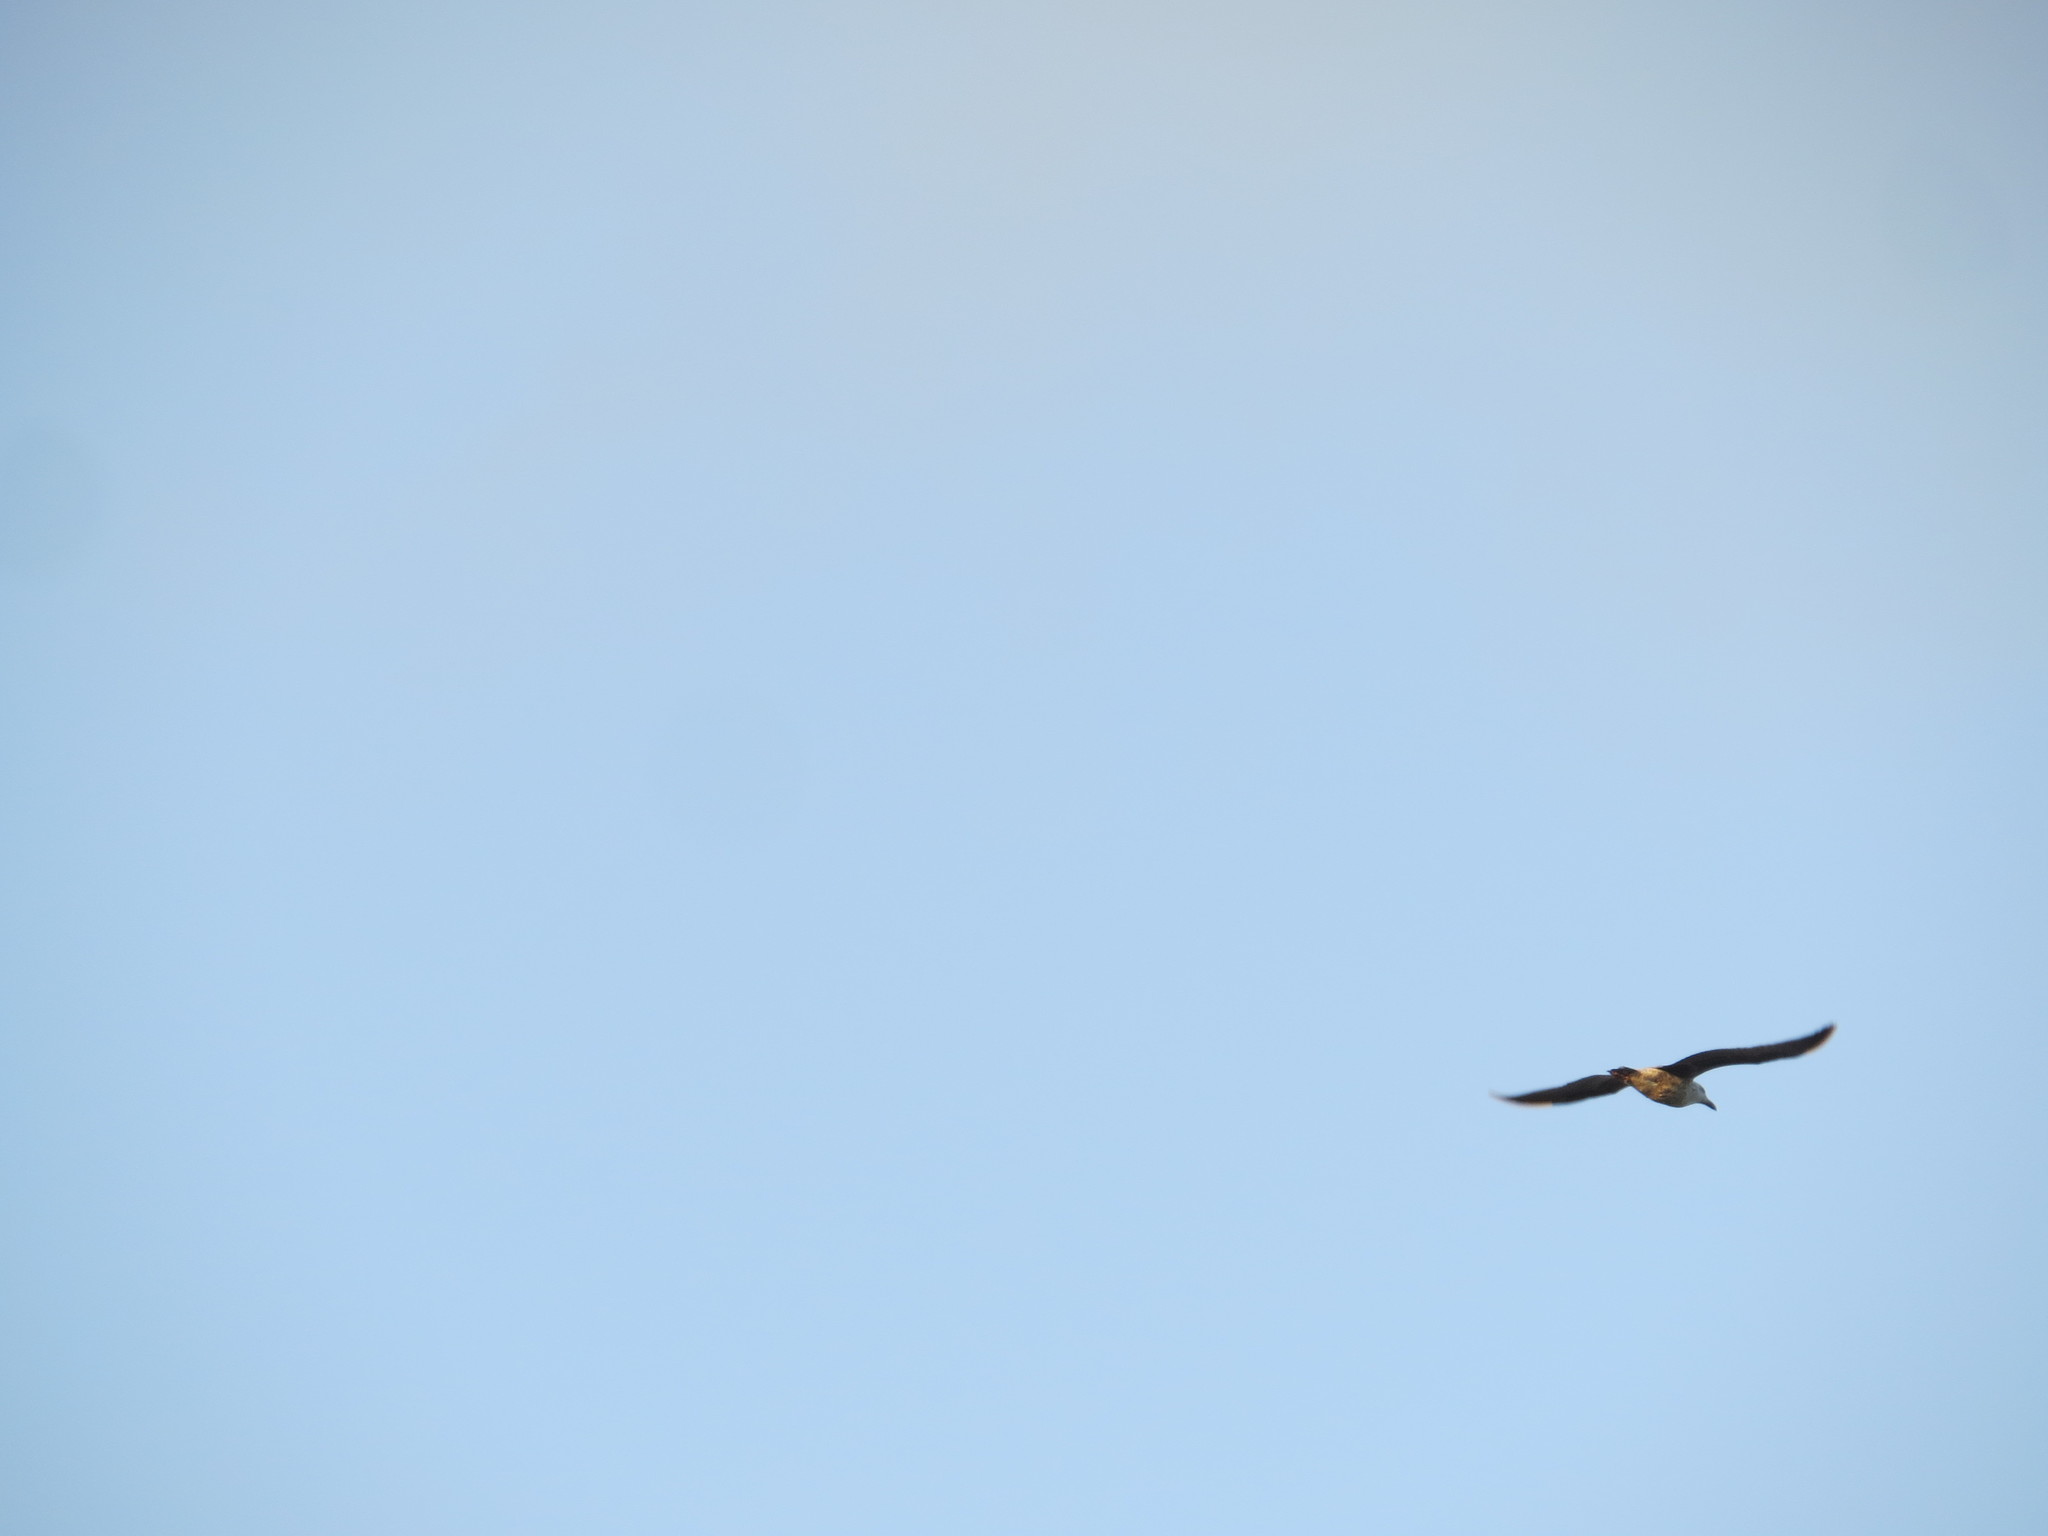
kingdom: Animalia
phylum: Chordata
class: Aves
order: Charadriiformes
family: Laridae
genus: Larus
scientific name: Larus dominicanus
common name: Kelp gull
